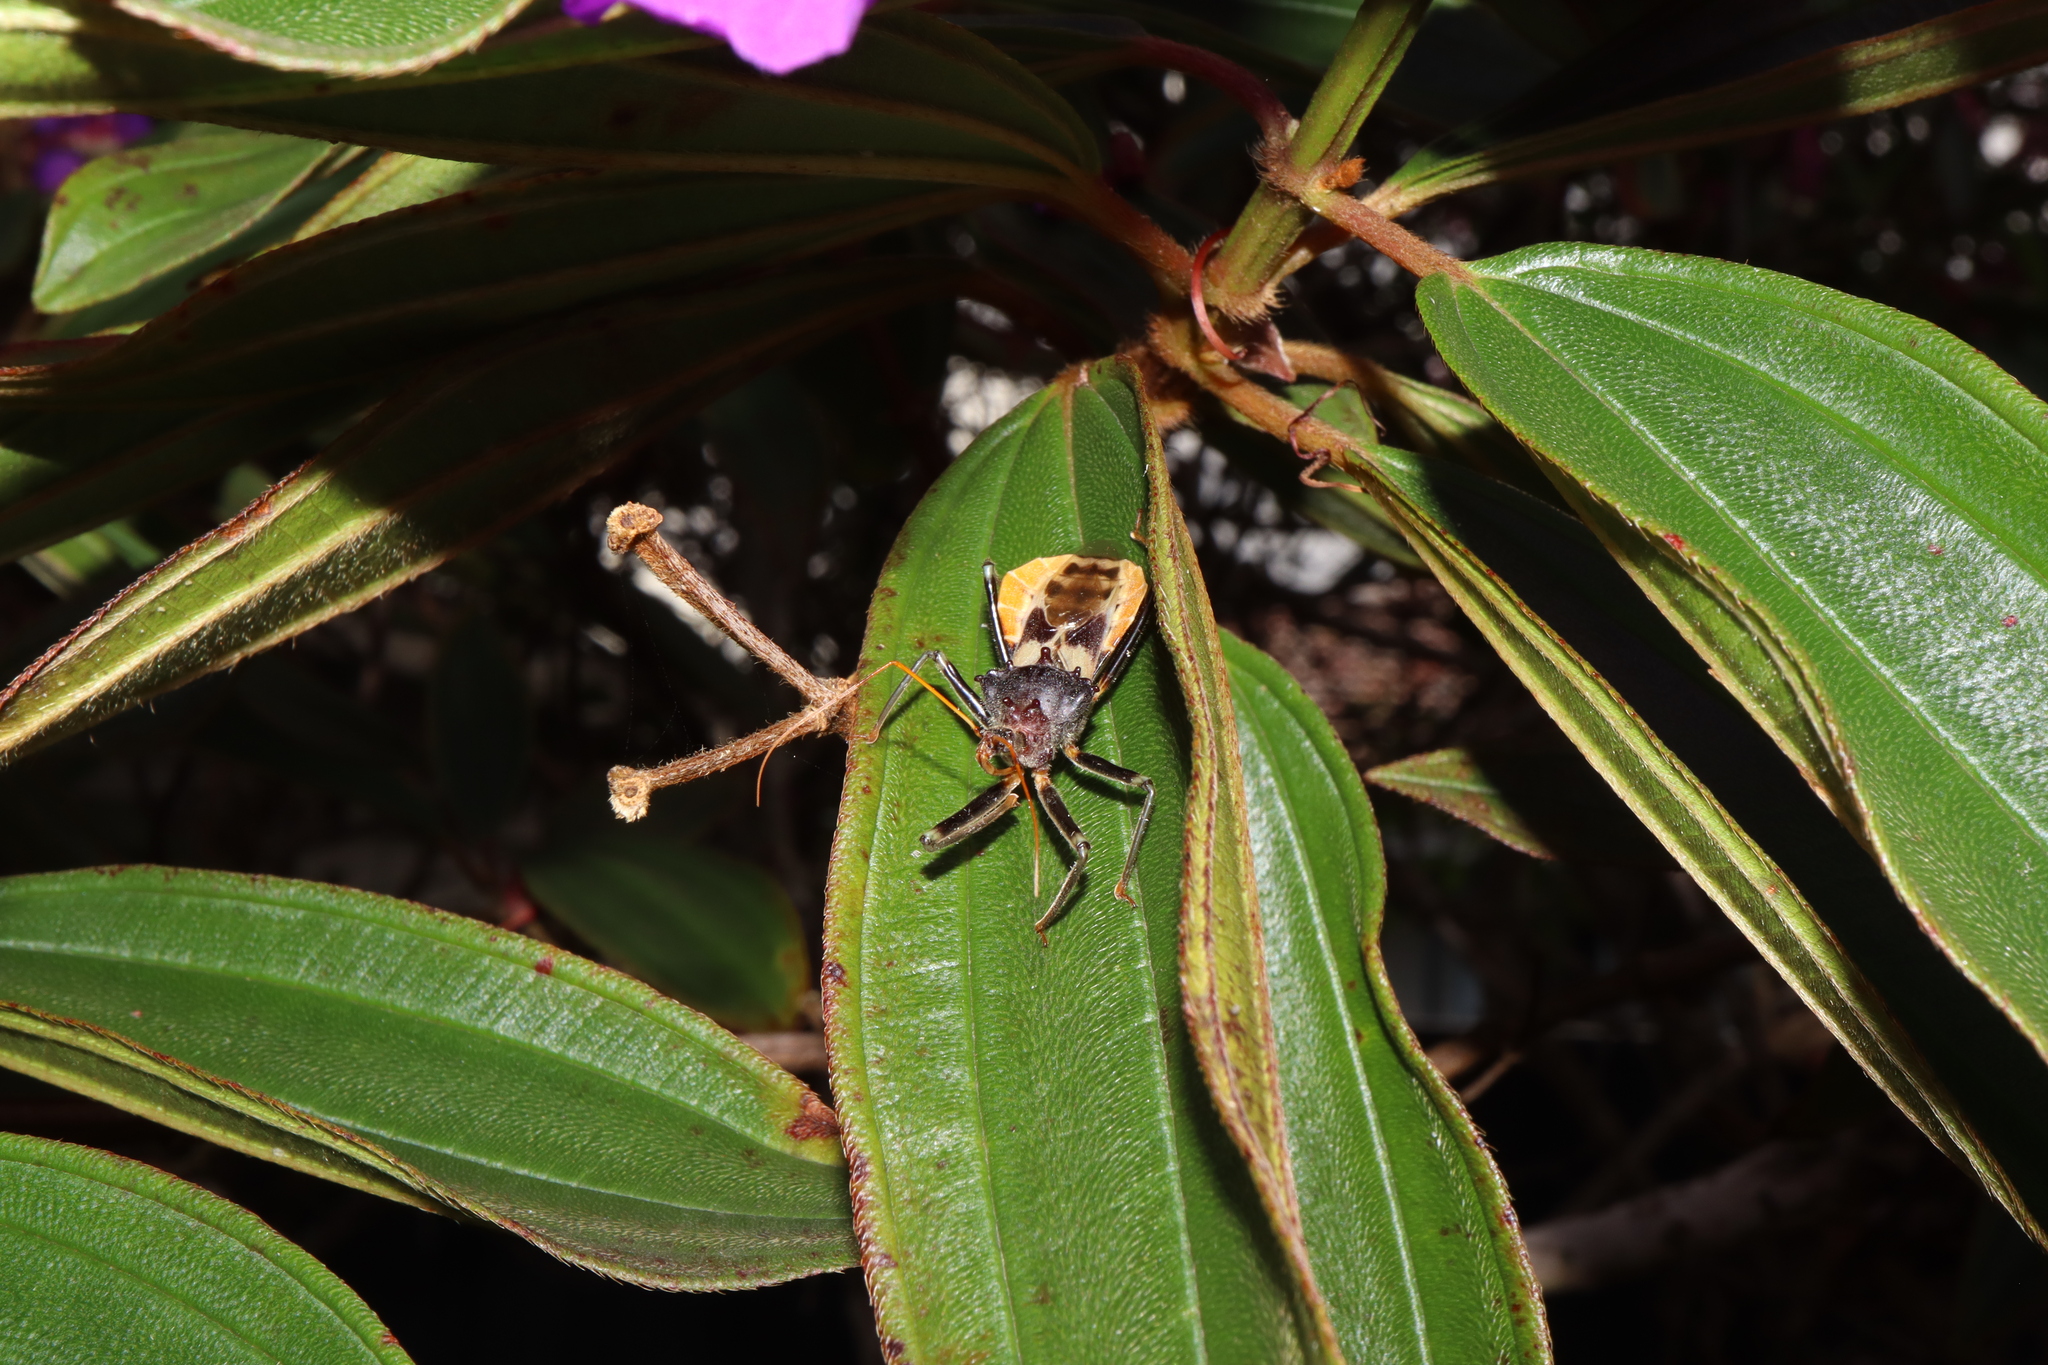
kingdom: Animalia
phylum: Arthropoda
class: Insecta
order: Hemiptera
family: Reduviidae
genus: Pristhesancus
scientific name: Pristhesancus plagipennis
